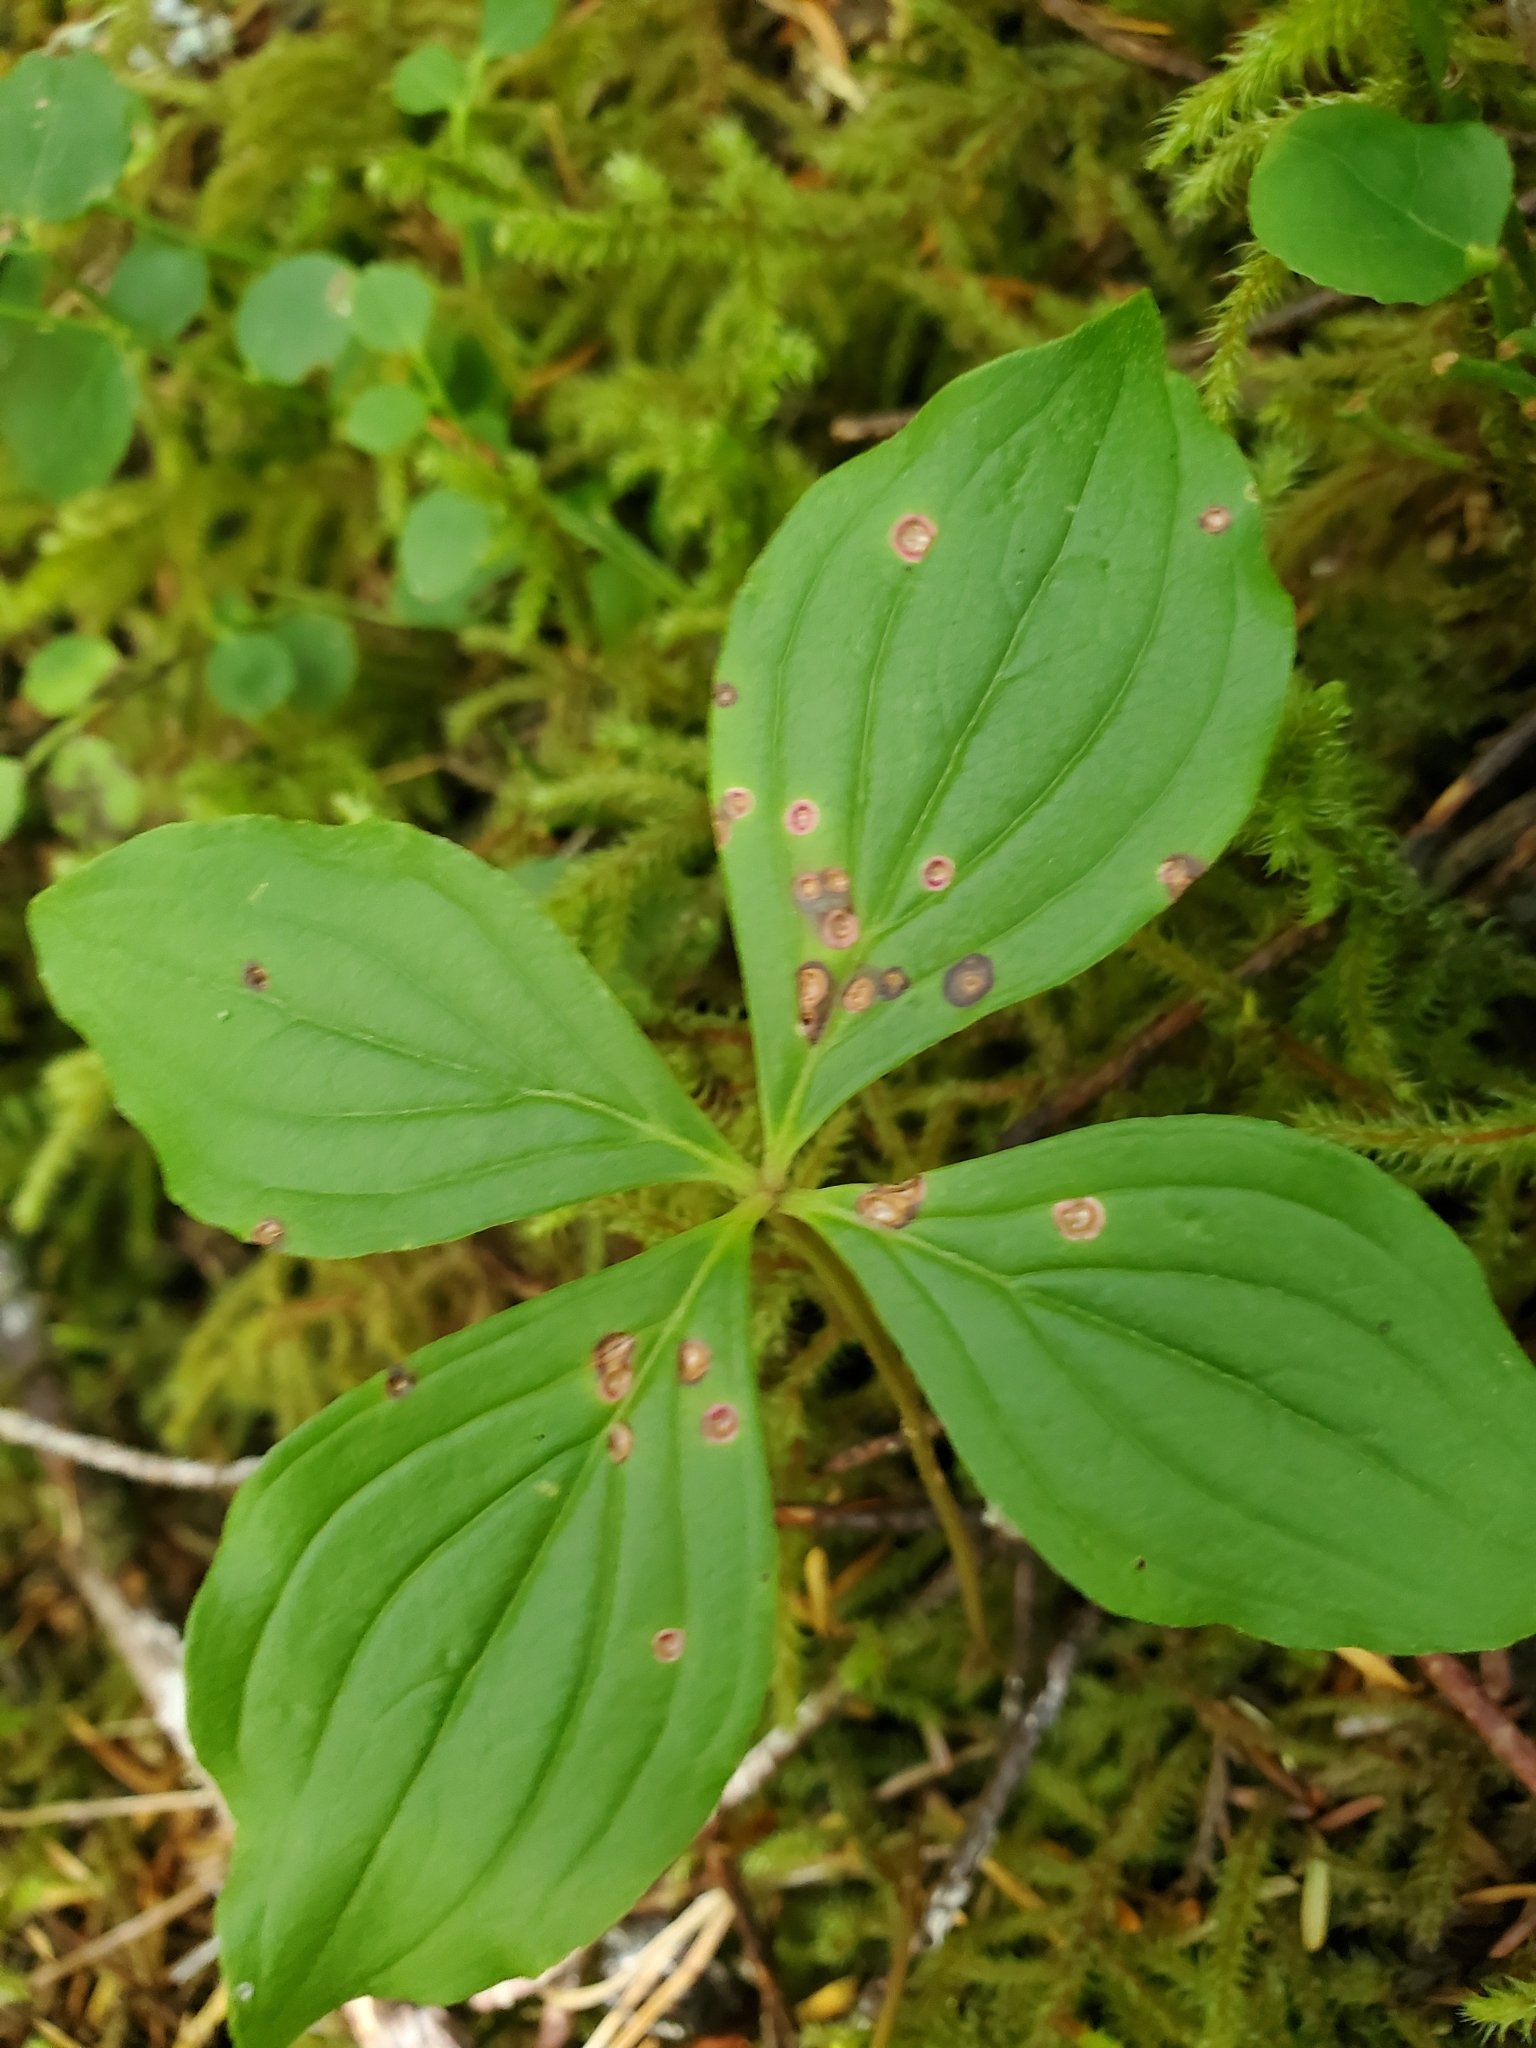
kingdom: Plantae
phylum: Tracheophyta
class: Magnoliopsida
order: Cornales
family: Cornaceae
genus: Cornus
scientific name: Cornus unalaschkensis
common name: Alaska bunchberry
